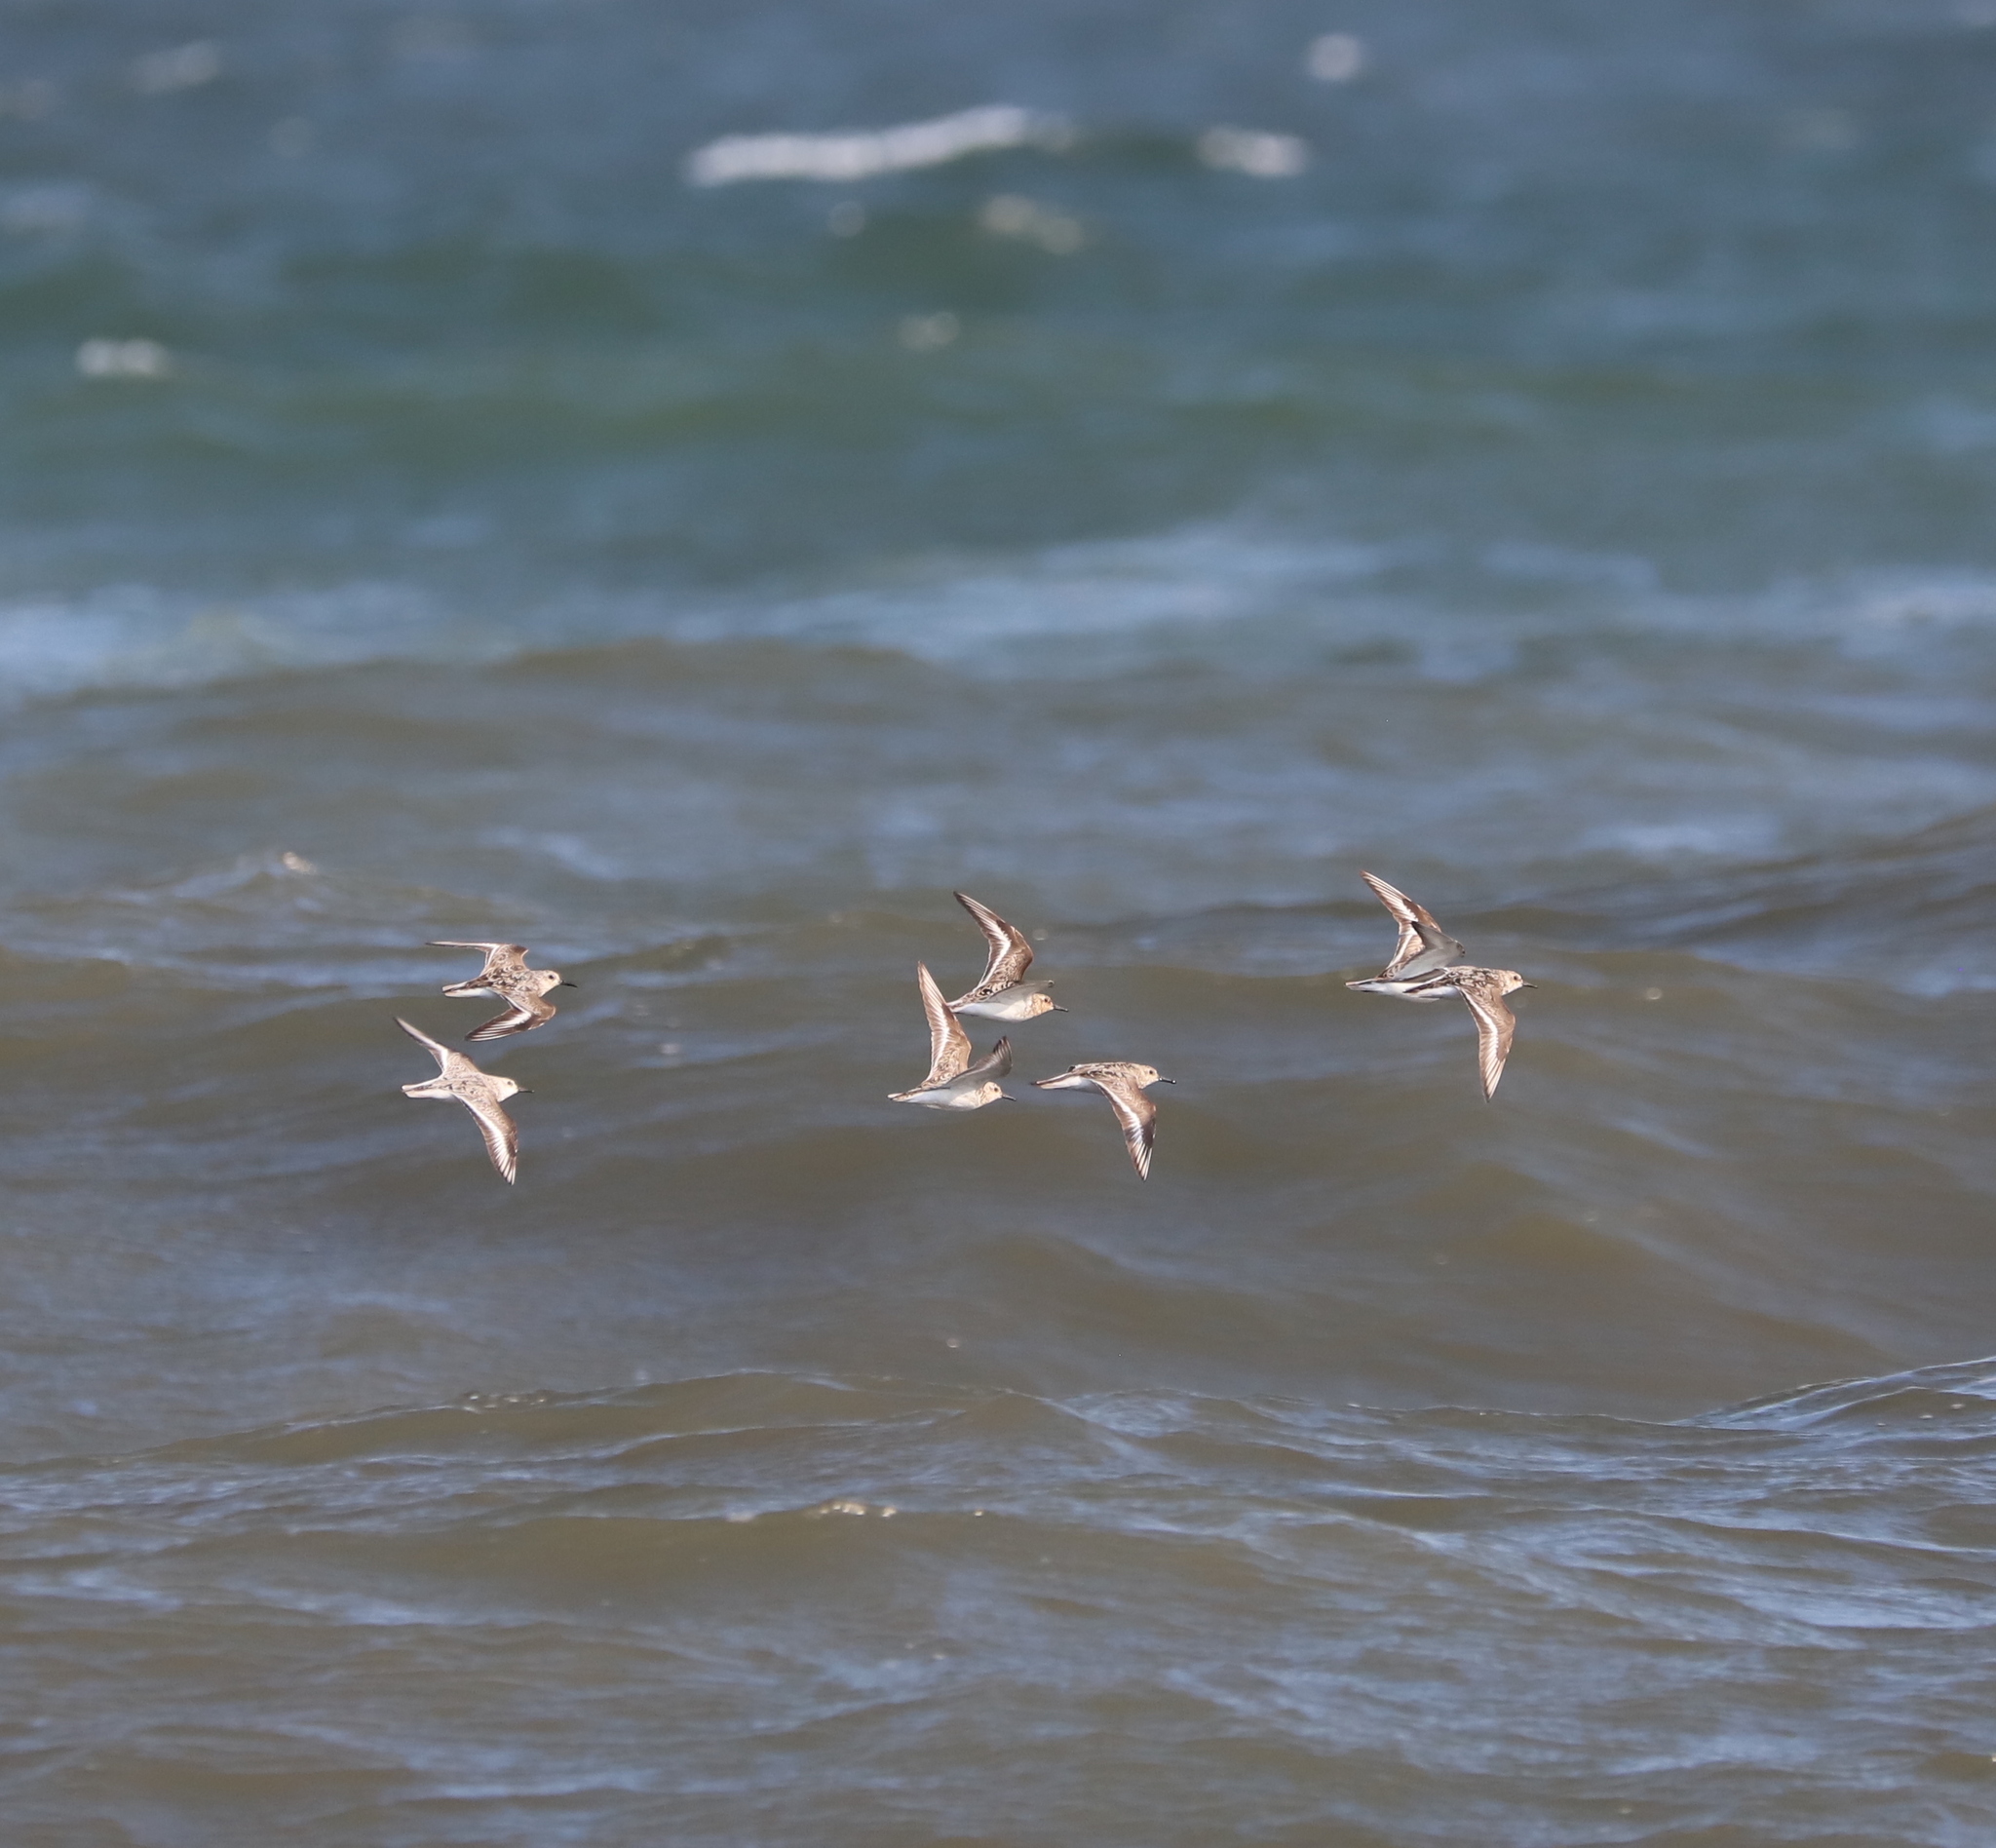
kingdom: Animalia
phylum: Chordata
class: Aves
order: Charadriiformes
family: Scolopacidae
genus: Calidris
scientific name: Calidris alba
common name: Sanderling
